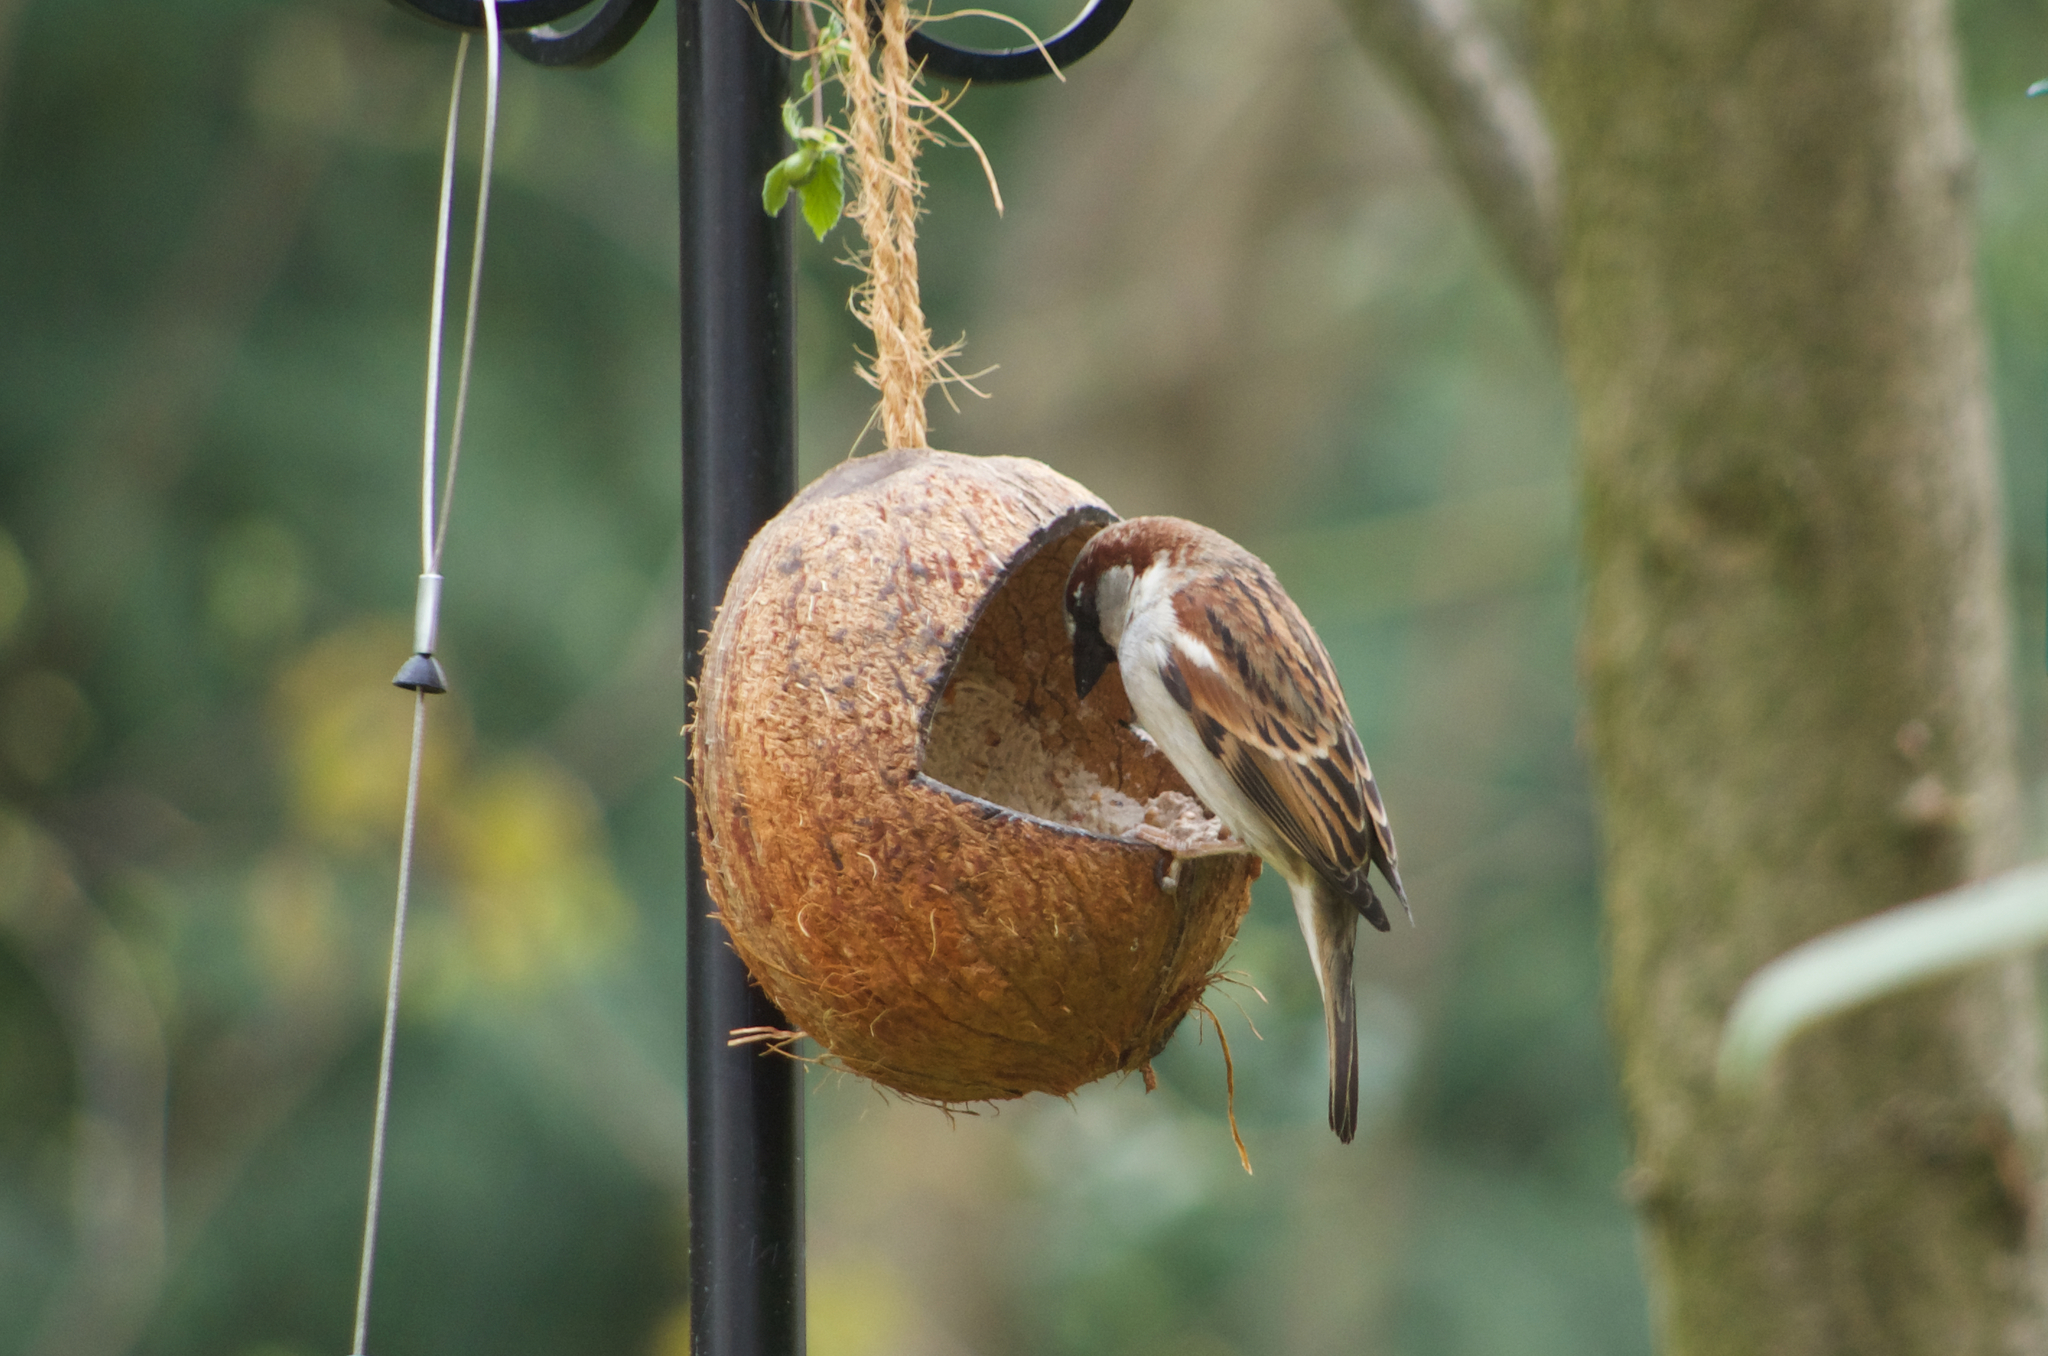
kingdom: Animalia
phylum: Chordata
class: Aves
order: Passeriformes
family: Passeridae
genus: Passer
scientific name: Passer domesticus
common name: House sparrow
